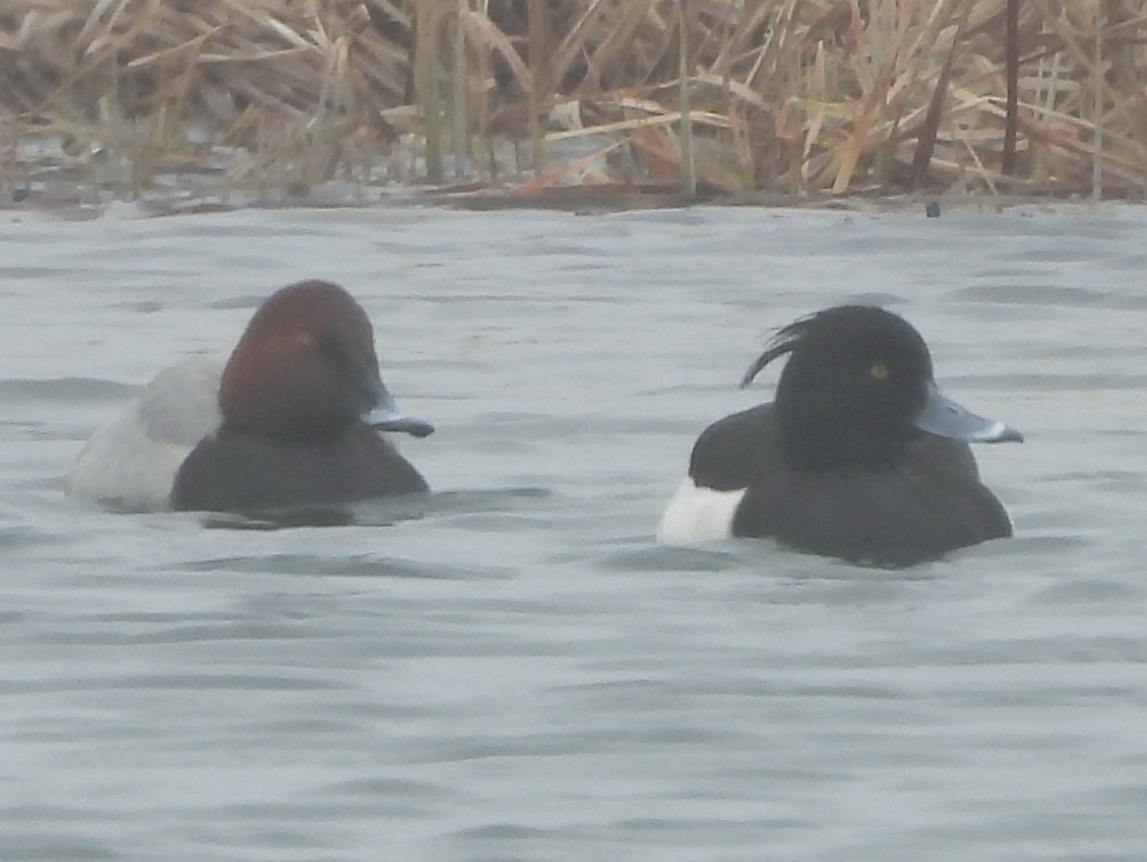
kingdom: Animalia
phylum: Chordata
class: Aves
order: Anseriformes
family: Anatidae
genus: Aythya
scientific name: Aythya fuligula
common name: Tufted duck
